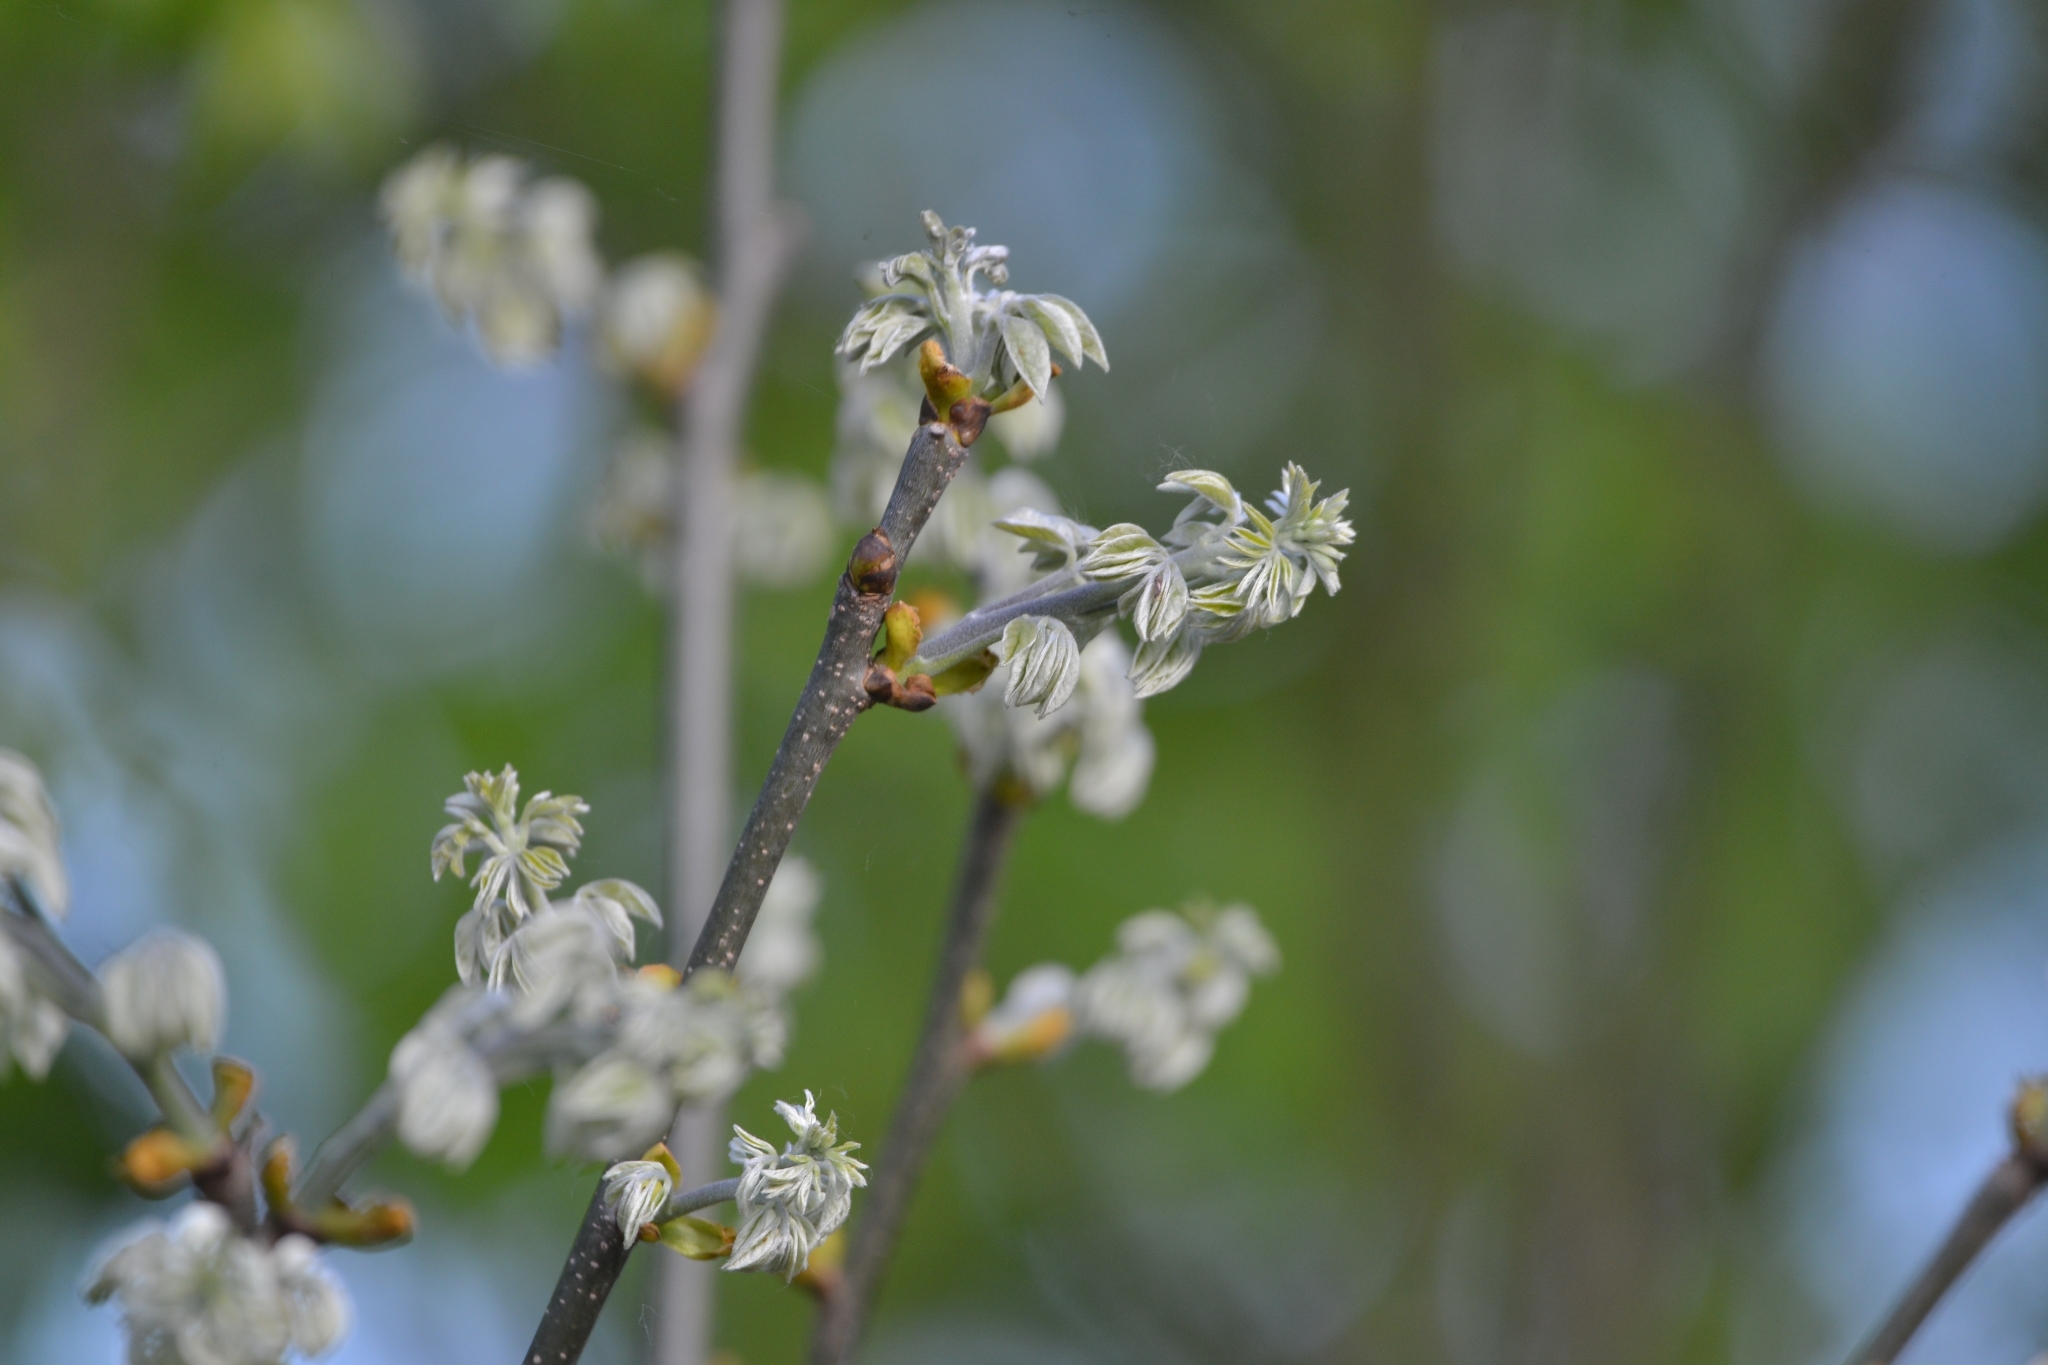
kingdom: Plantae
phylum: Tracheophyta
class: Magnoliopsida
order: Fabales
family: Fabaceae
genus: Maackia
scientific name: Maackia amurensis
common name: Amur maackia
